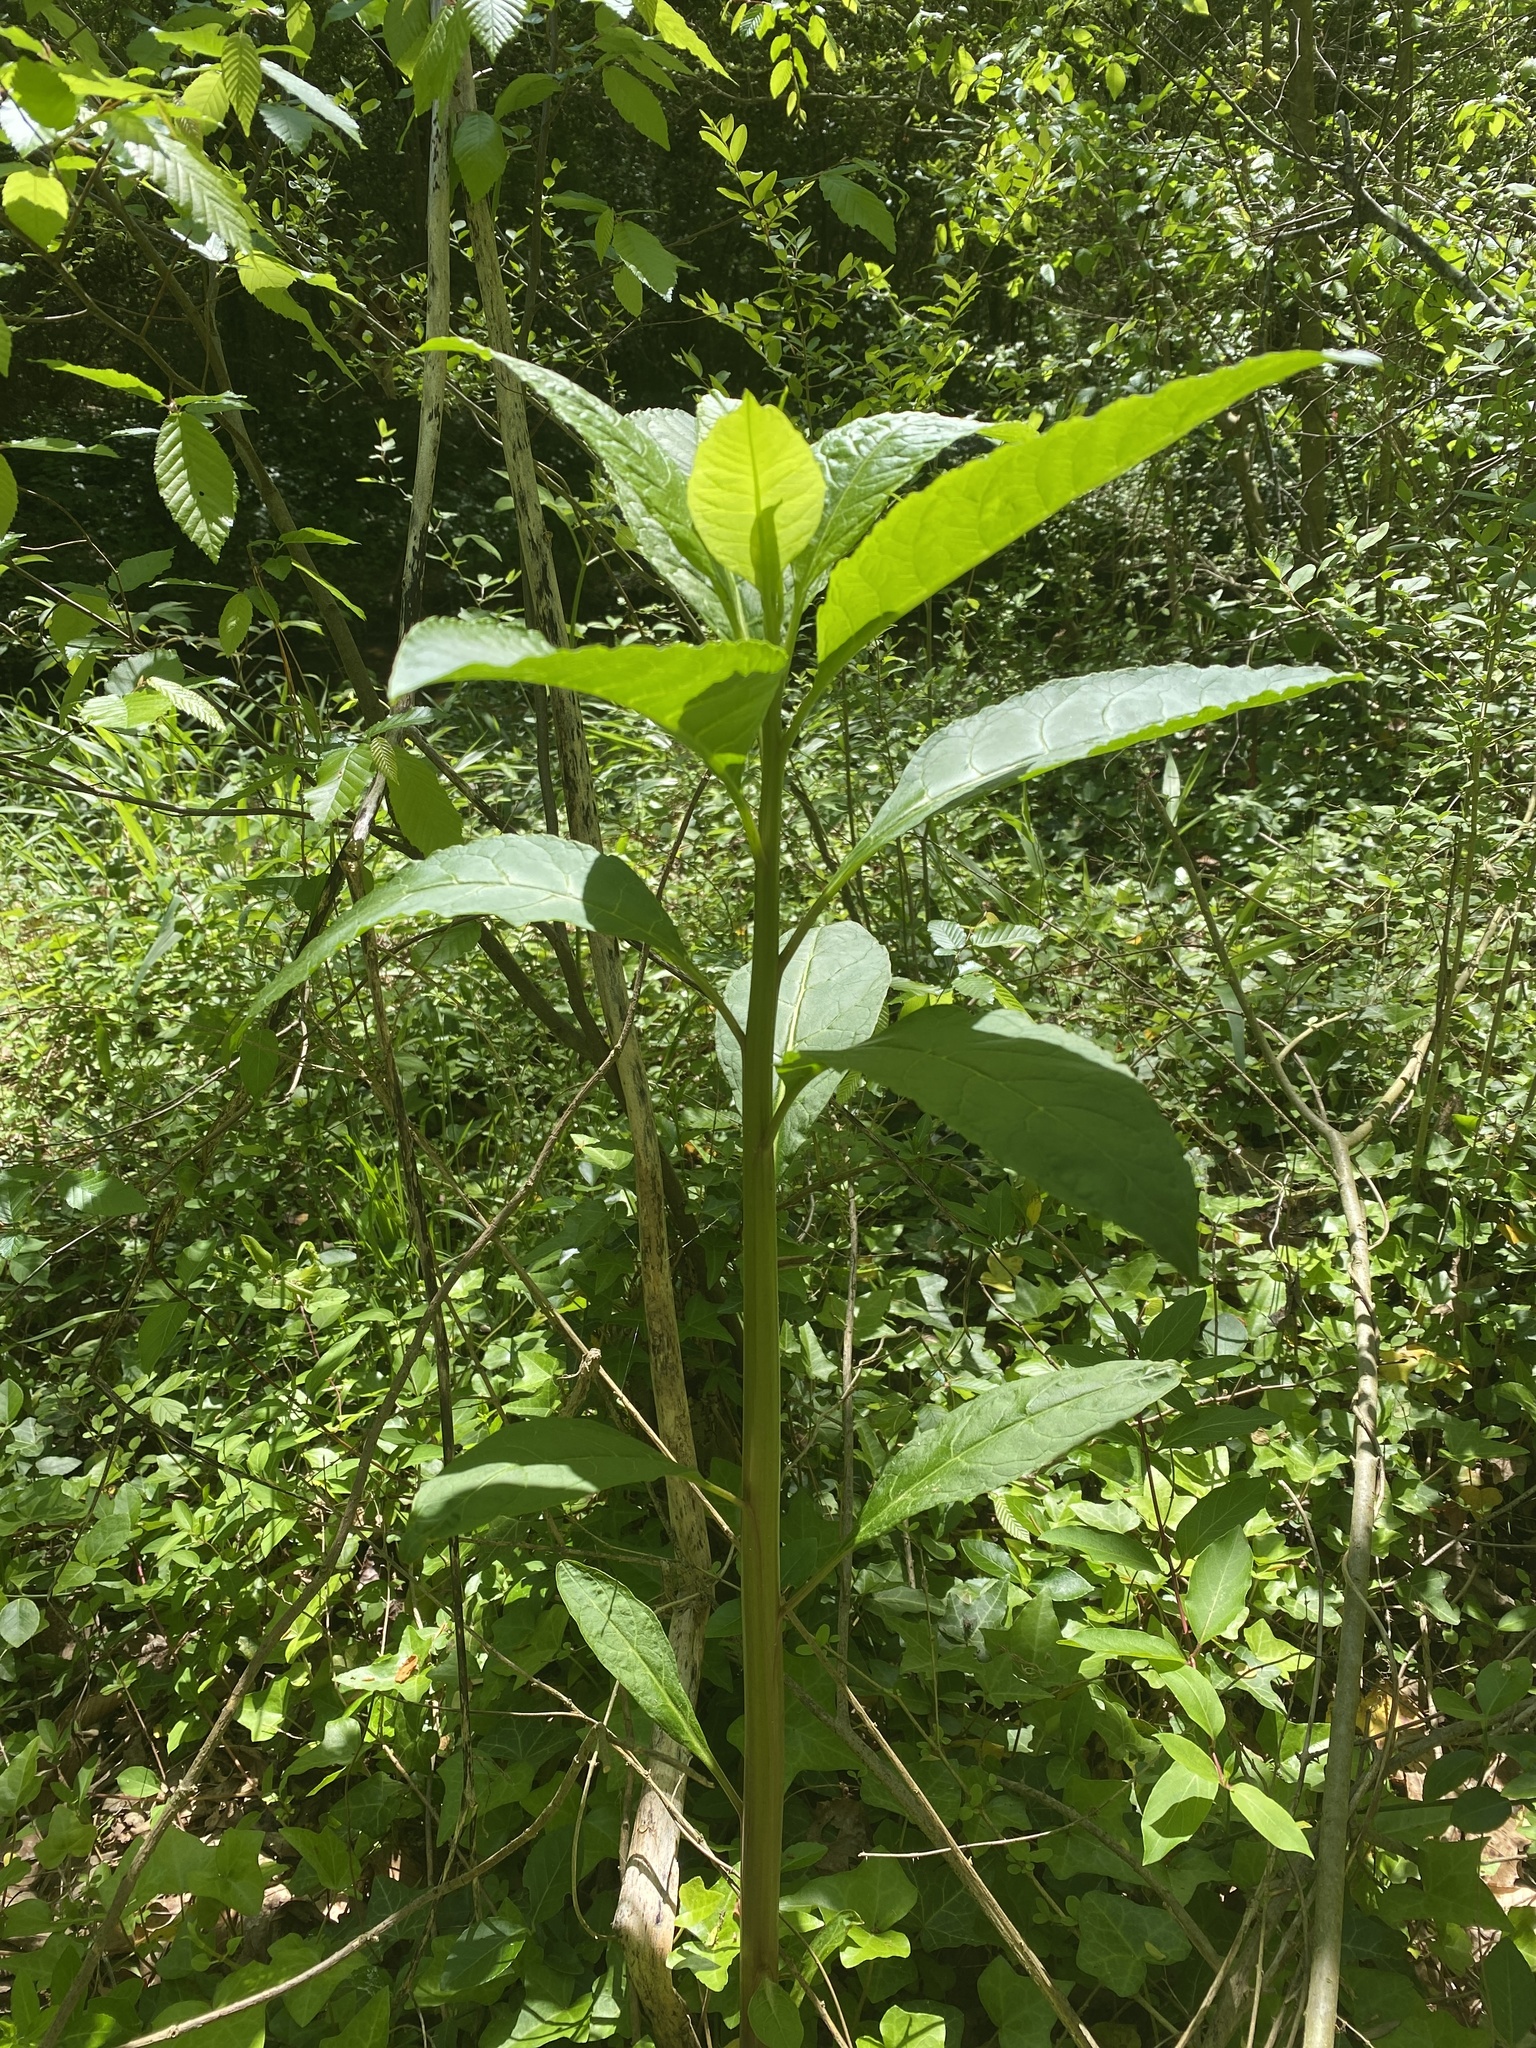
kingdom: Plantae
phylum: Tracheophyta
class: Magnoliopsida
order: Caryophyllales
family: Phytolaccaceae
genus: Phytolacca
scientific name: Phytolacca americana
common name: American pokeweed
